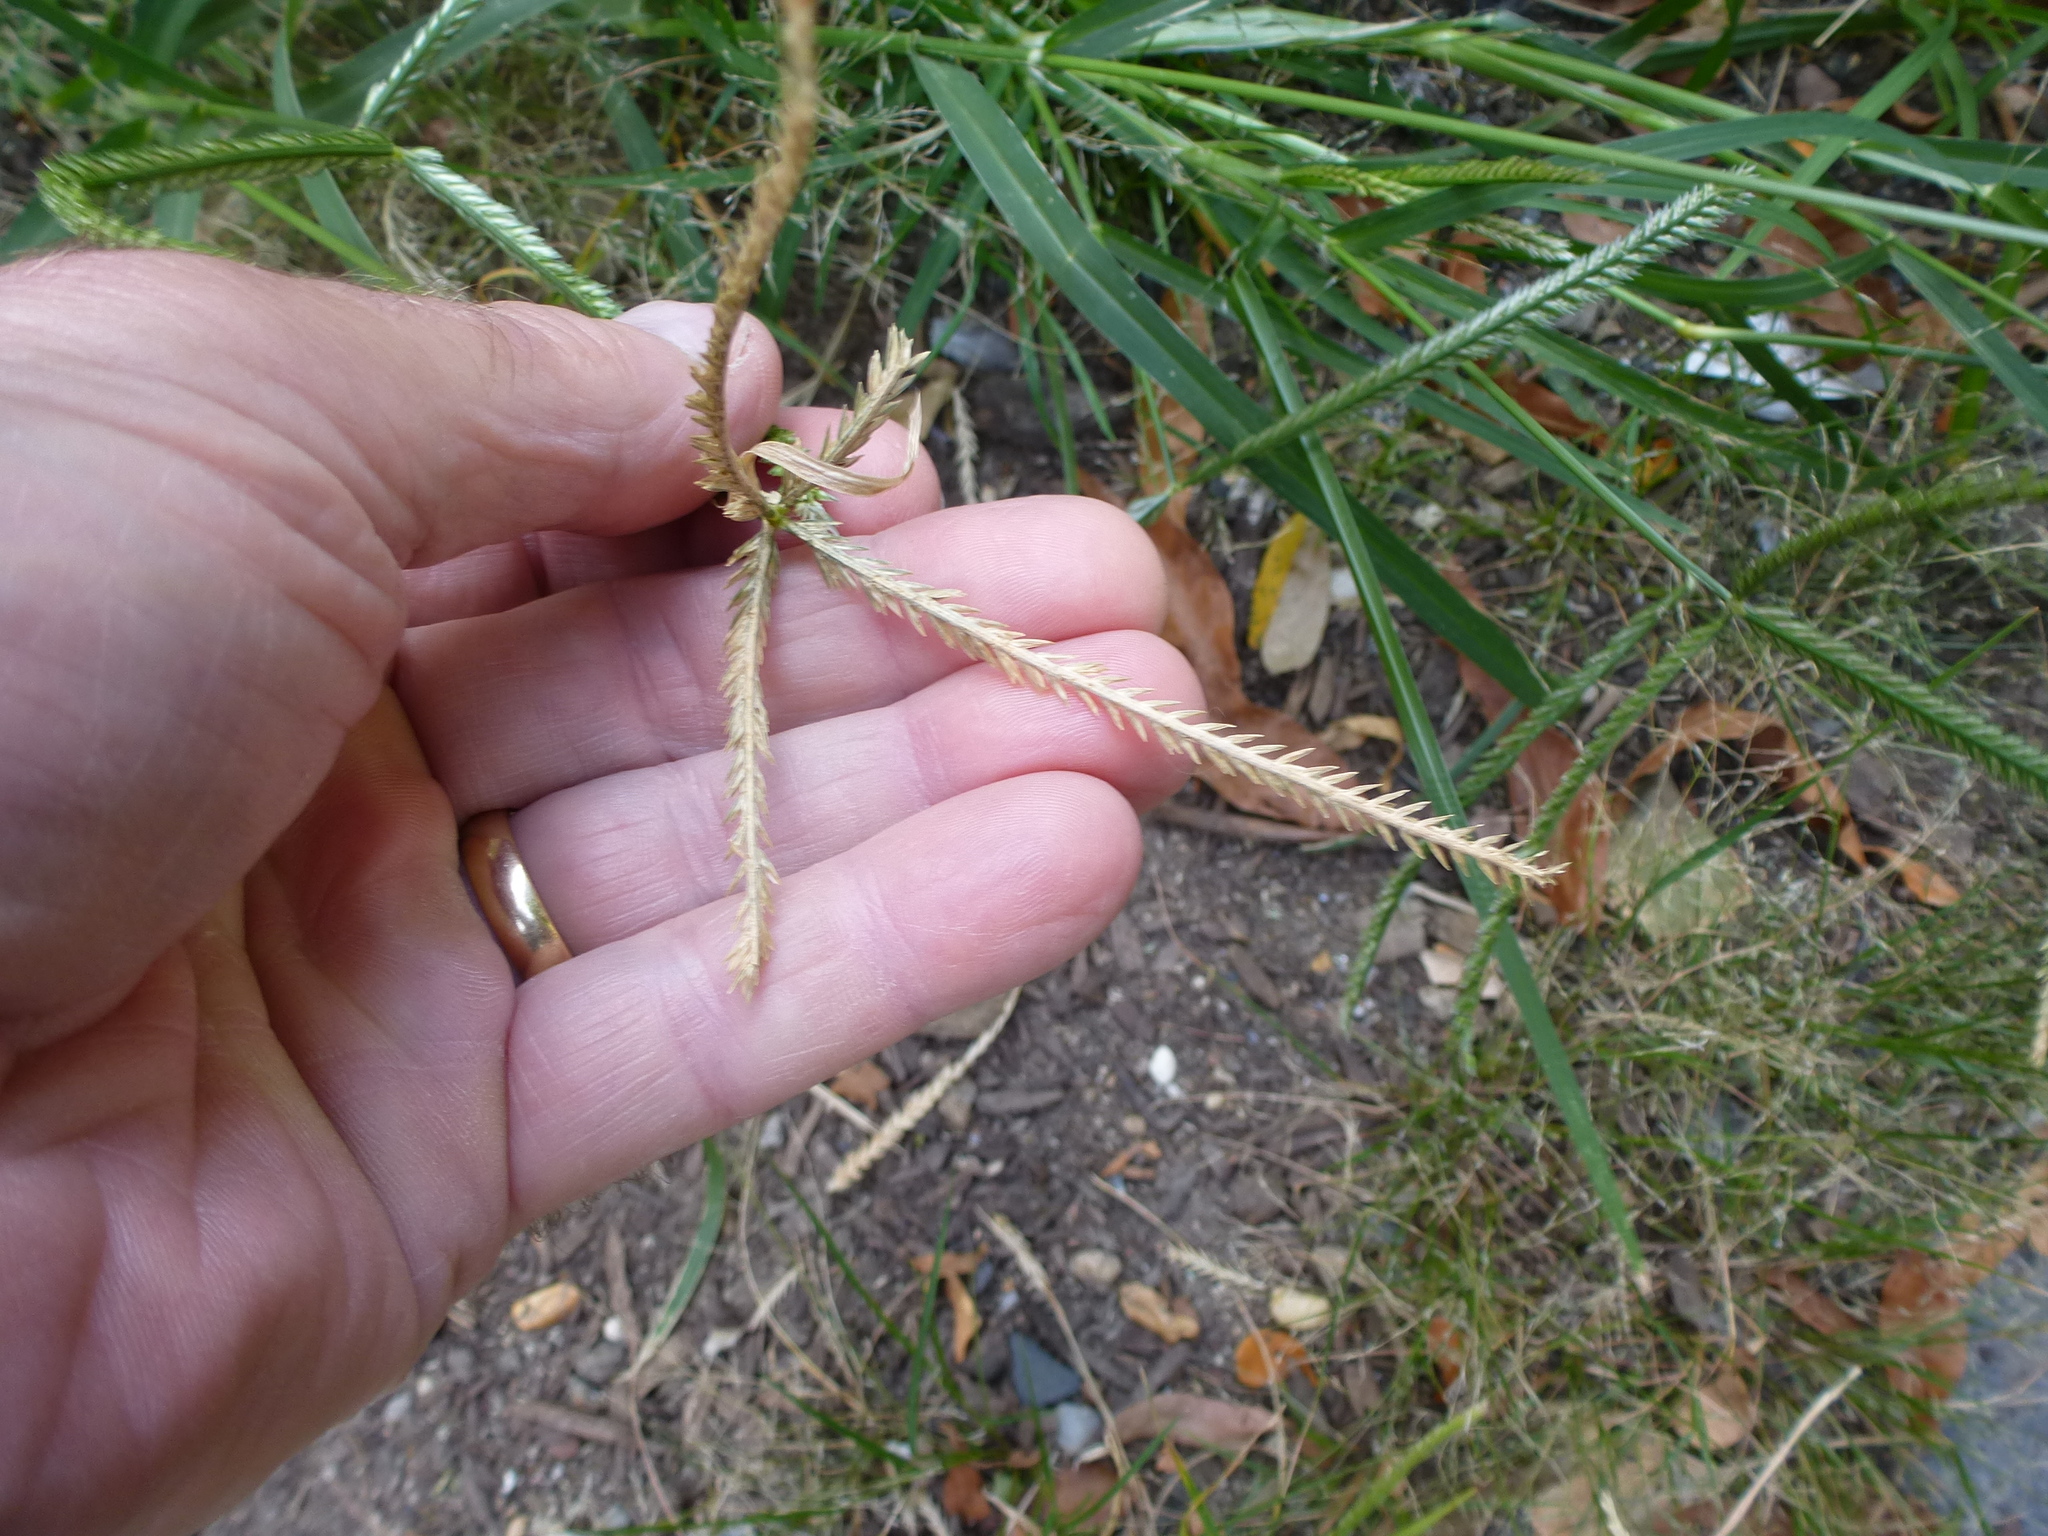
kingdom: Plantae
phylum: Tracheophyta
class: Liliopsida
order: Poales
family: Poaceae
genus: Eleusine
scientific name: Eleusine indica
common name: Yard-grass
